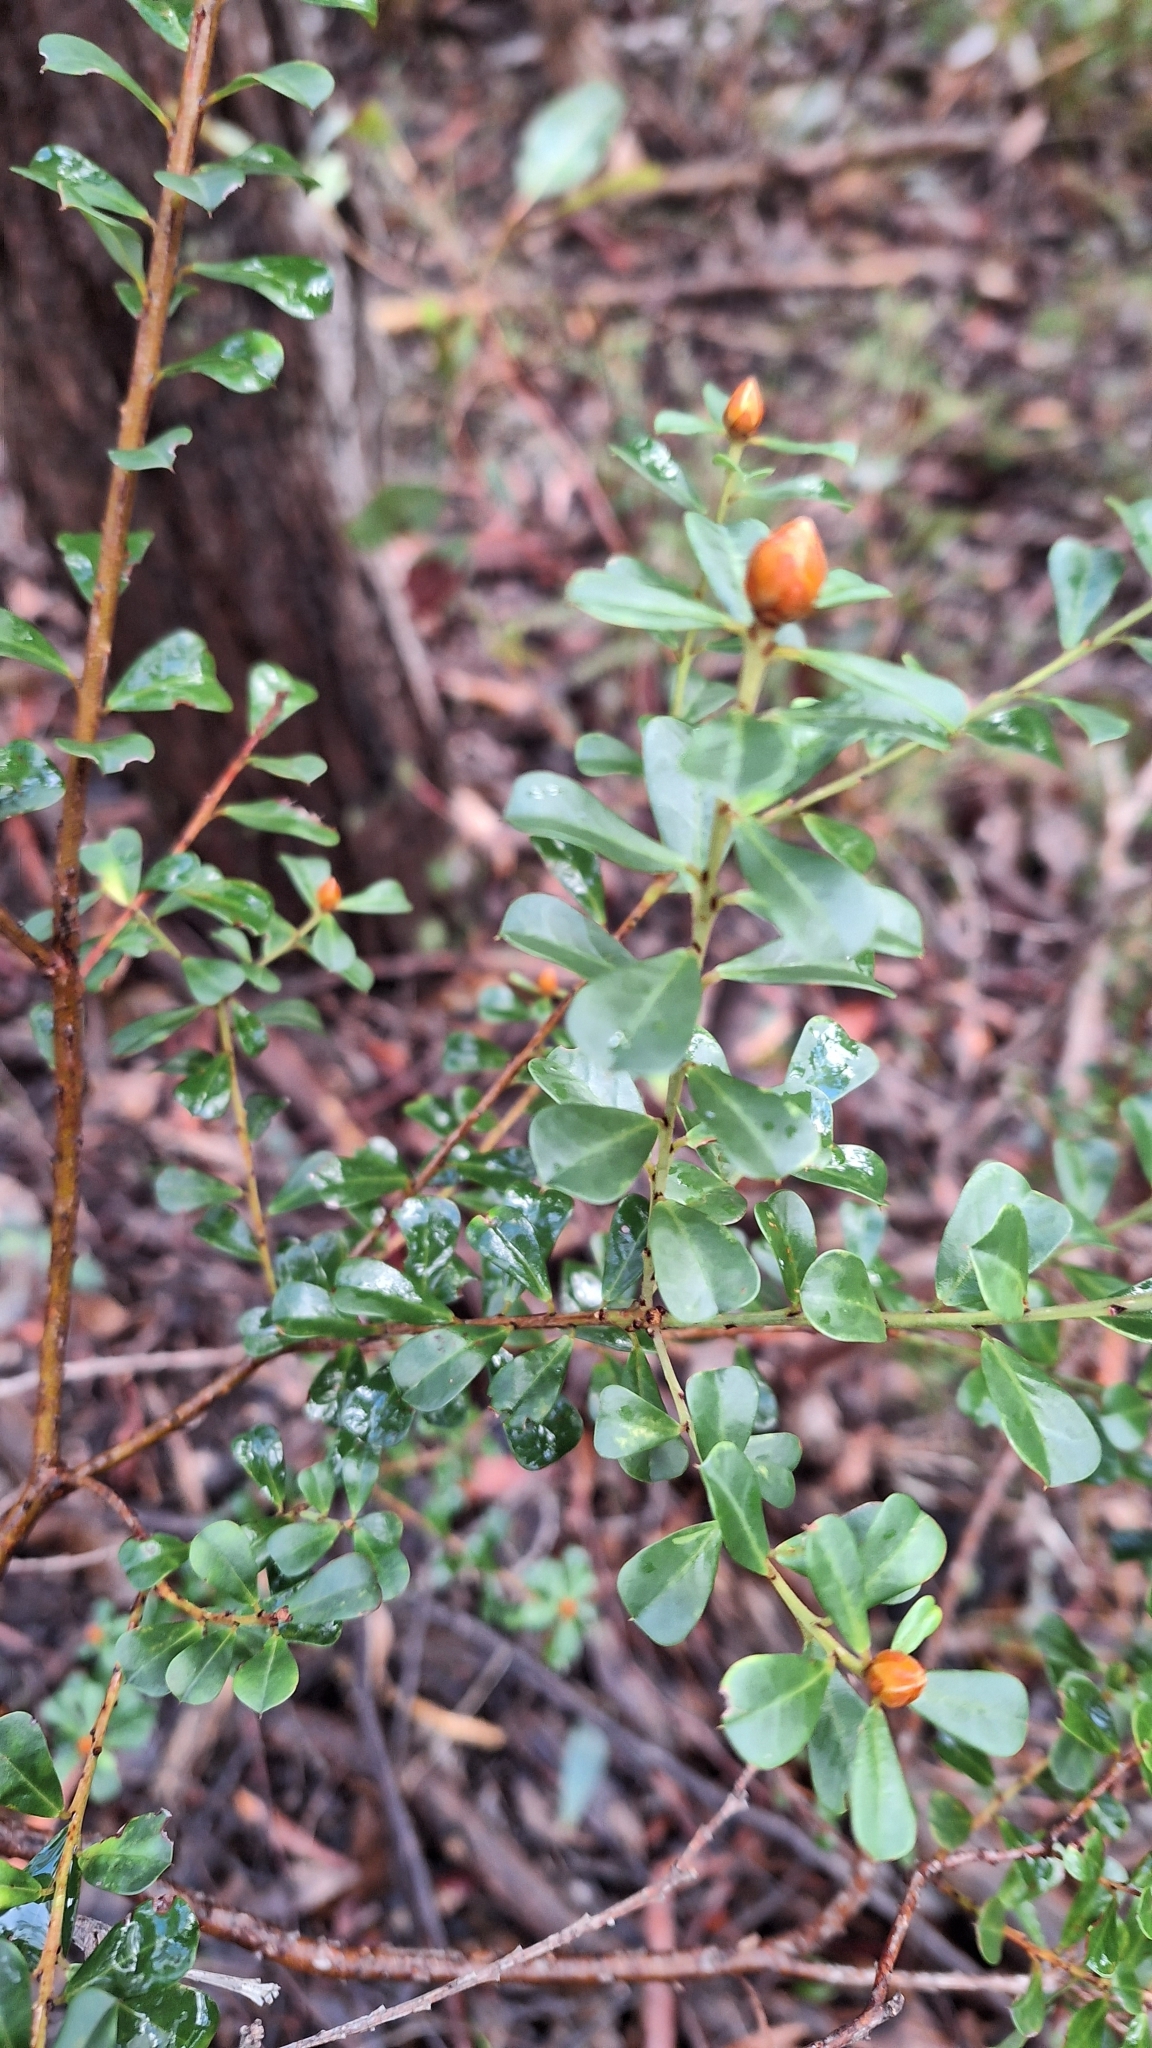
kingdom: Plantae
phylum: Tracheophyta
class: Magnoliopsida
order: Fabales
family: Fabaceae
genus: Pultenaea
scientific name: Pultenaea daphnoides
